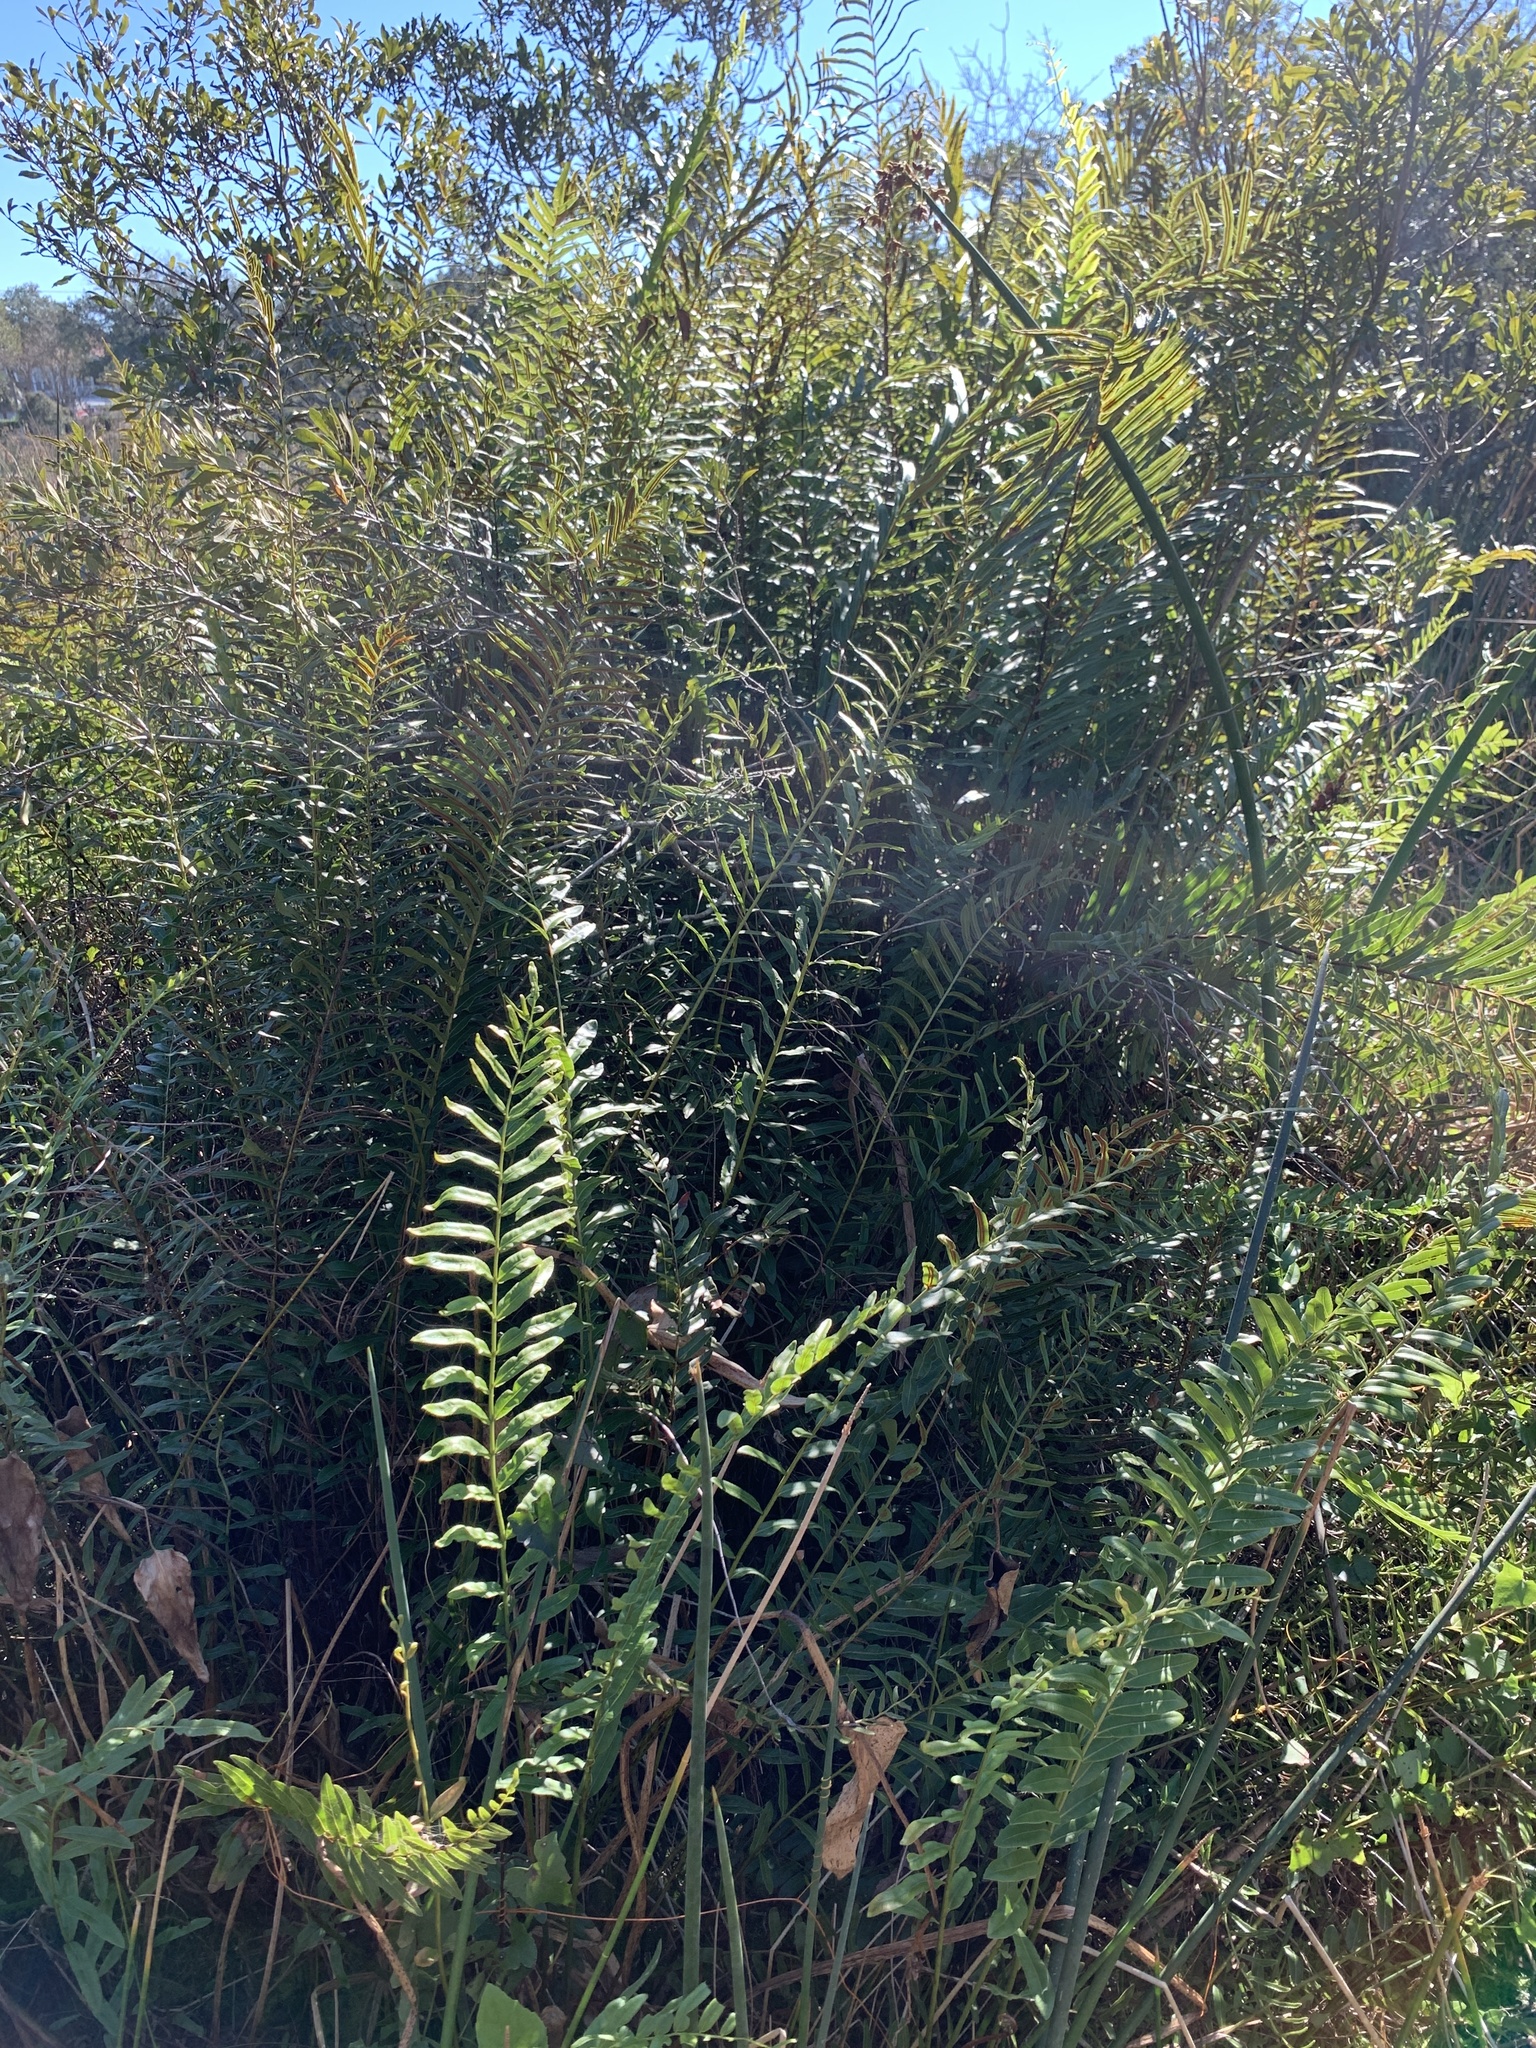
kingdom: Plantae
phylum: Tracheophyta
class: Polypodiopsida
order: Polypodiales
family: Blechnaceae
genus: Telmatoblechnum
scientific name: Telmatoblechnum serrulatum
